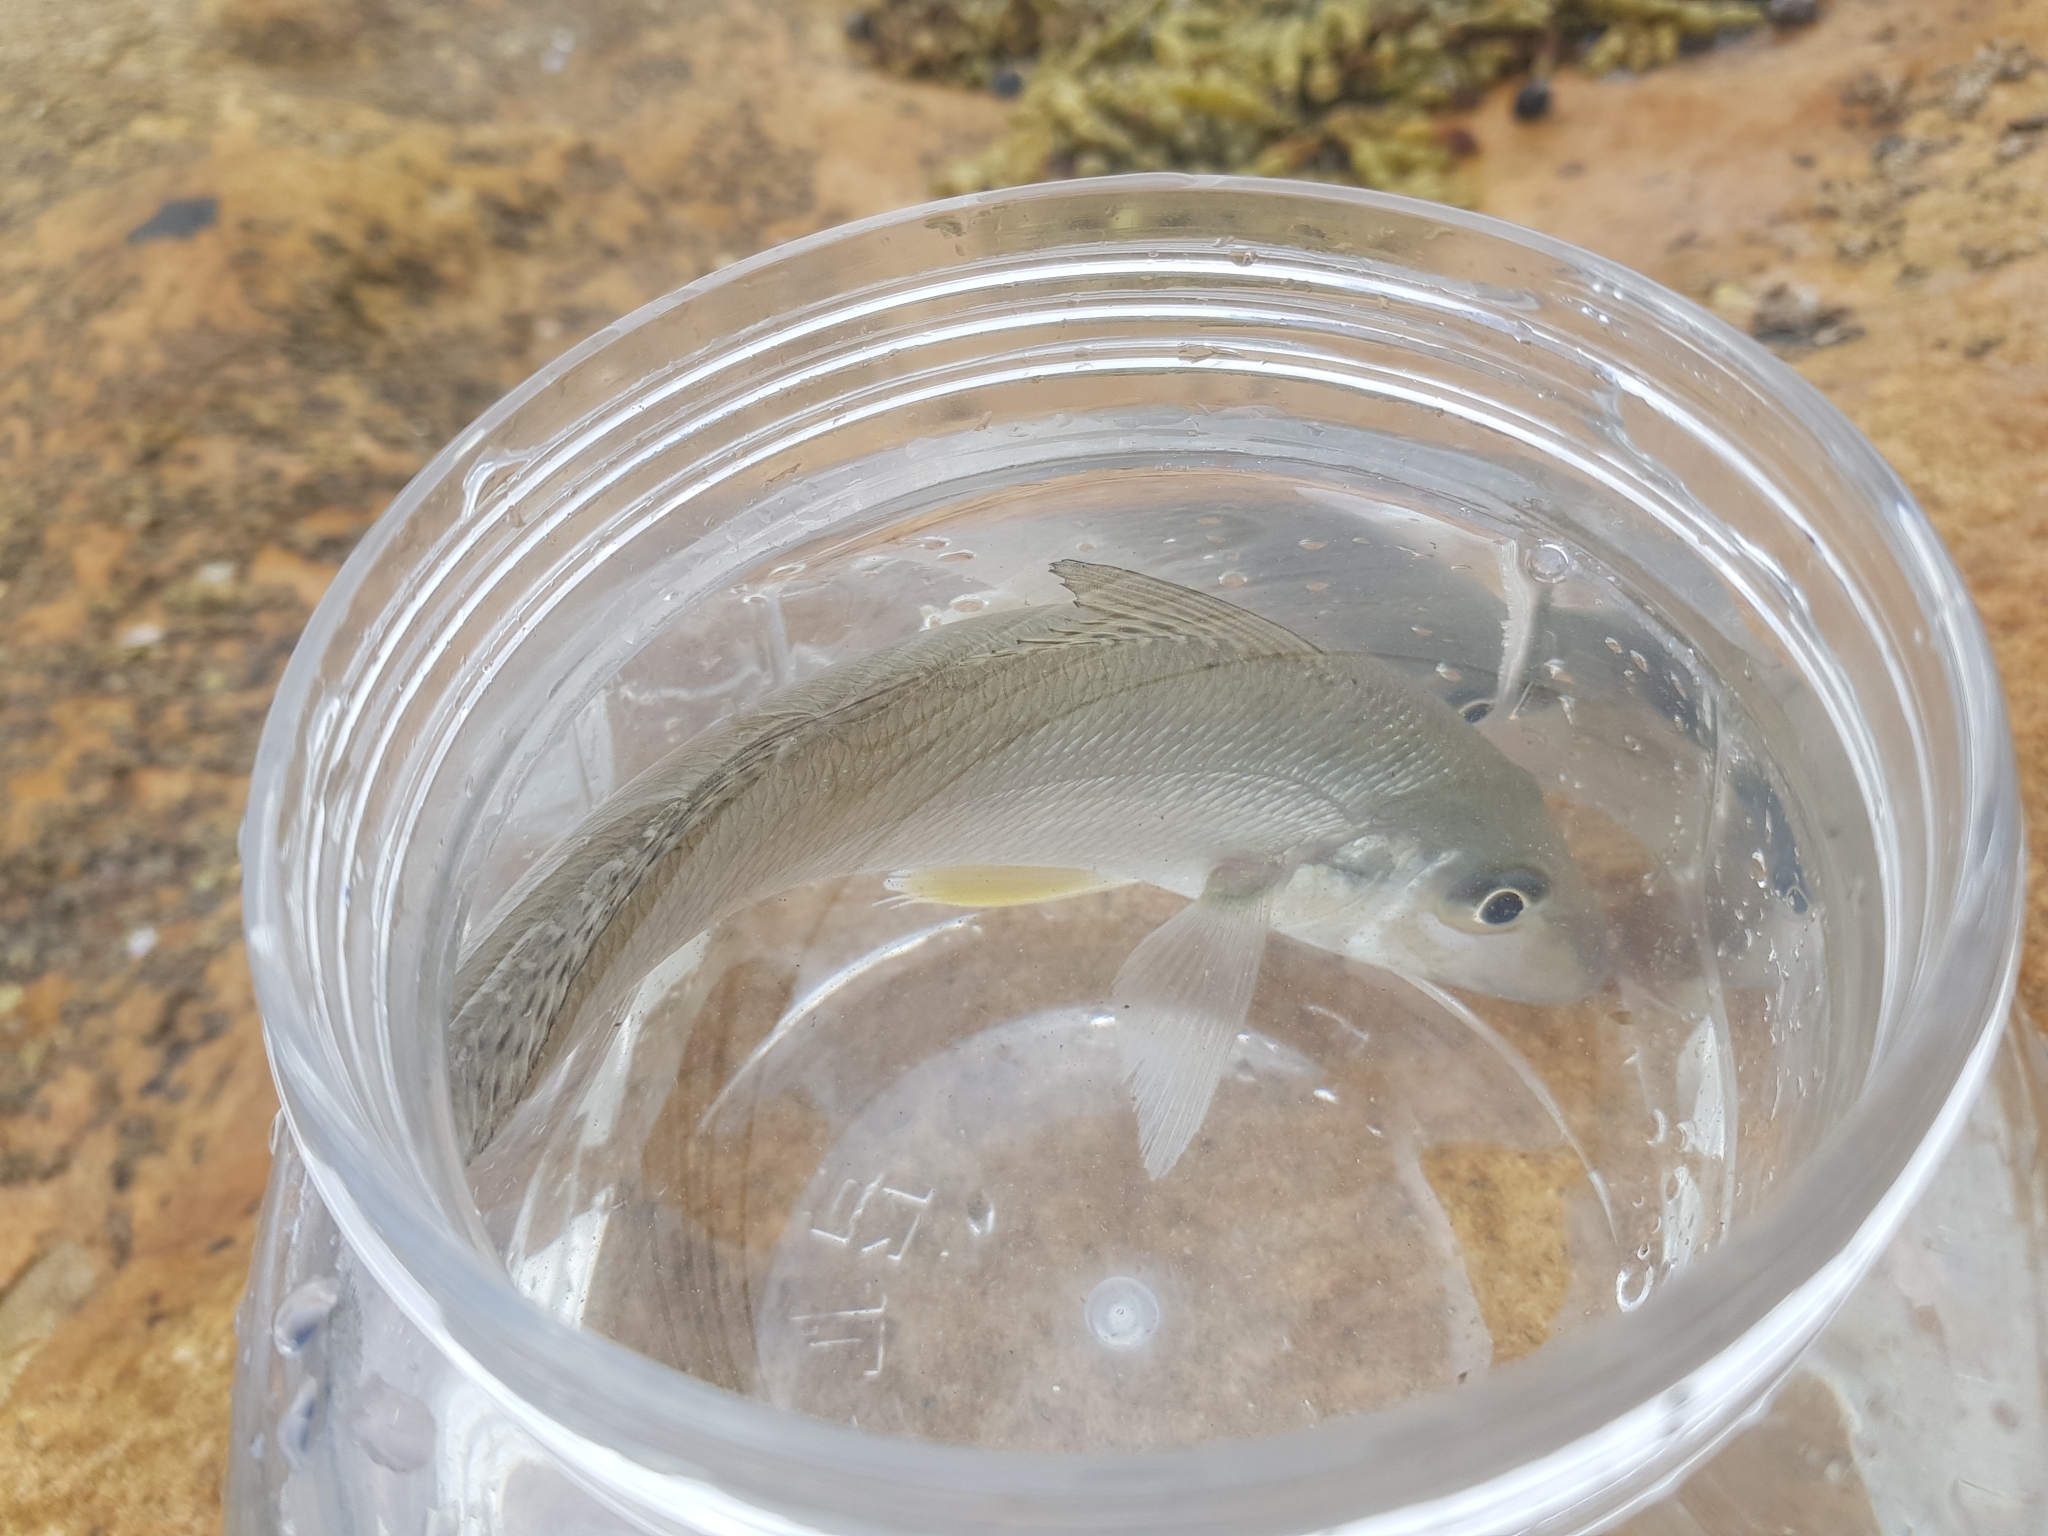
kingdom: Animalia
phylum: Chordata
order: Perciformes
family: Sillaginidae
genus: Sillago
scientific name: Sillago ciliata
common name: Sand sillago
